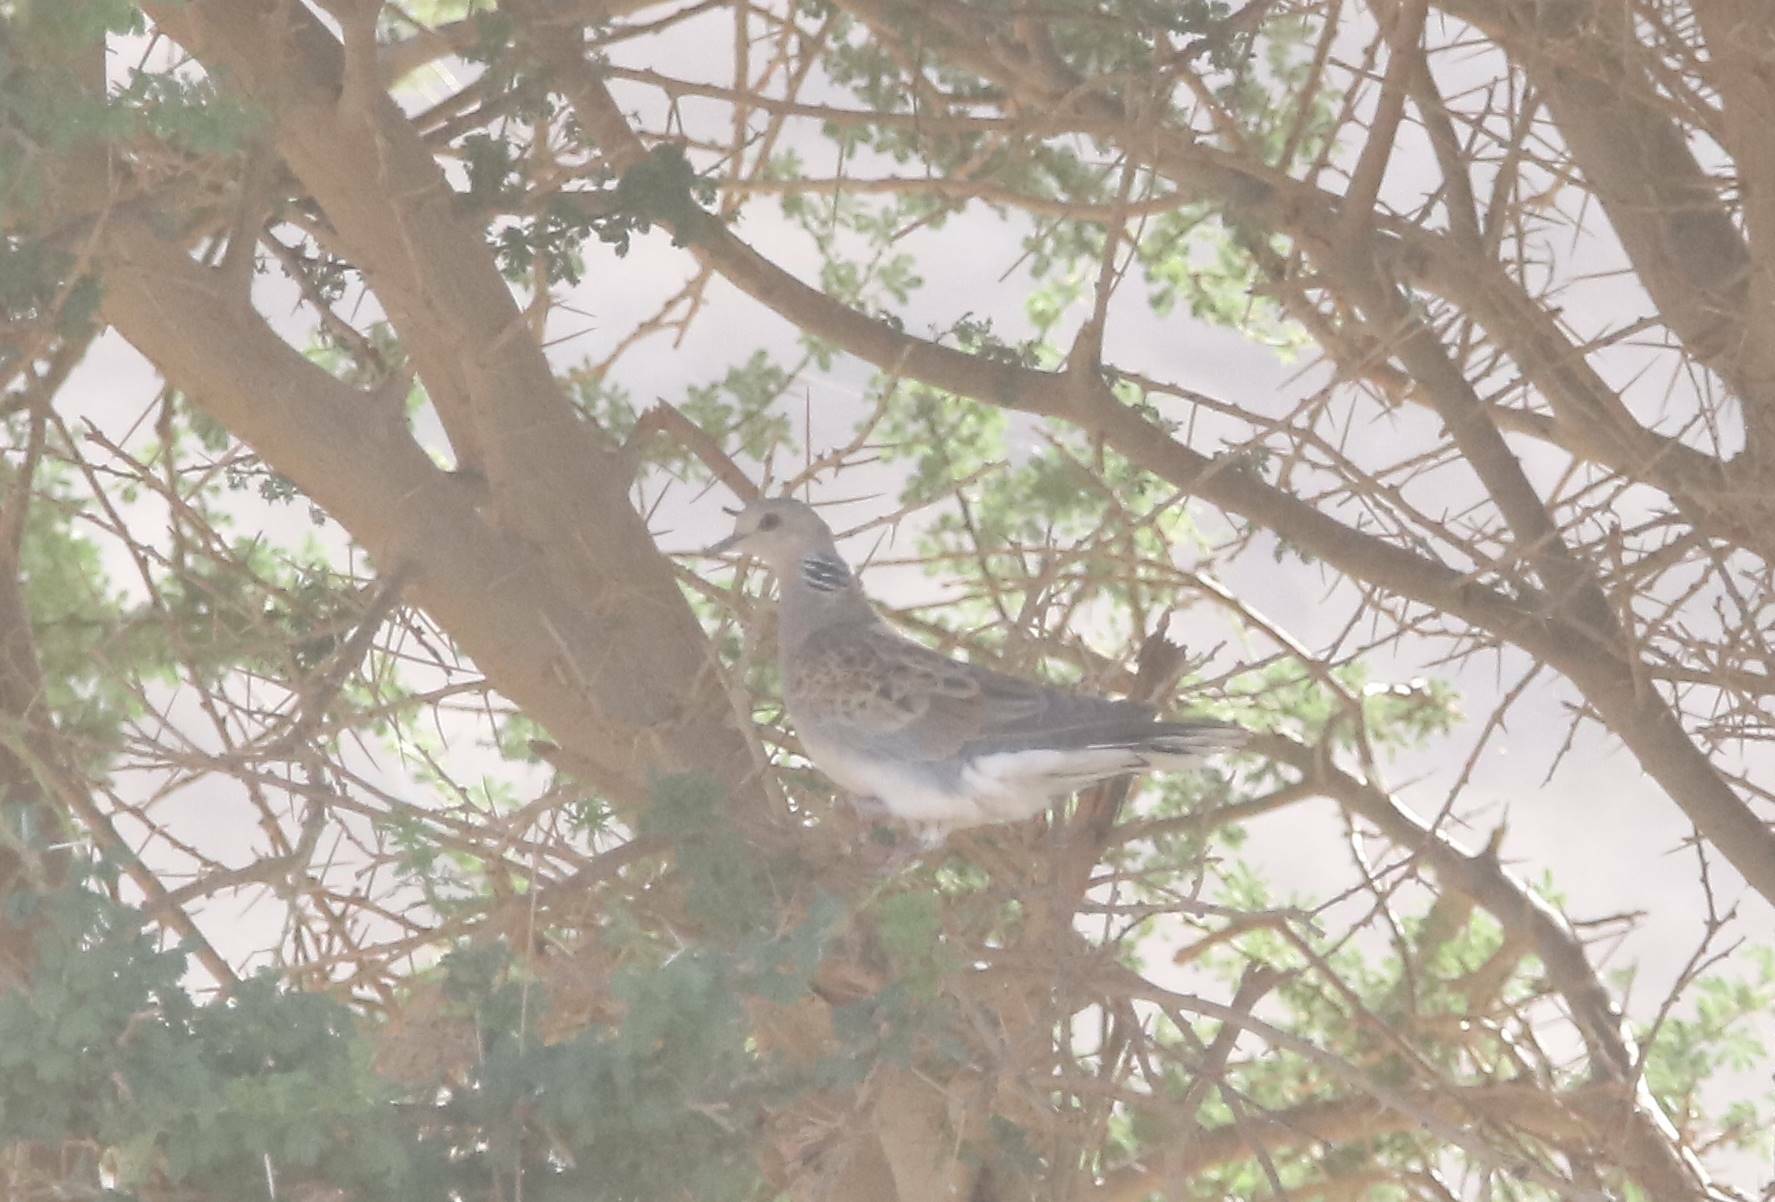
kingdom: Animalia
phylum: Chordata
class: Aves
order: Columbiformes
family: Columbidae
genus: Streptopelia
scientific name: Streptopelia turtur
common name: European turtle dove
